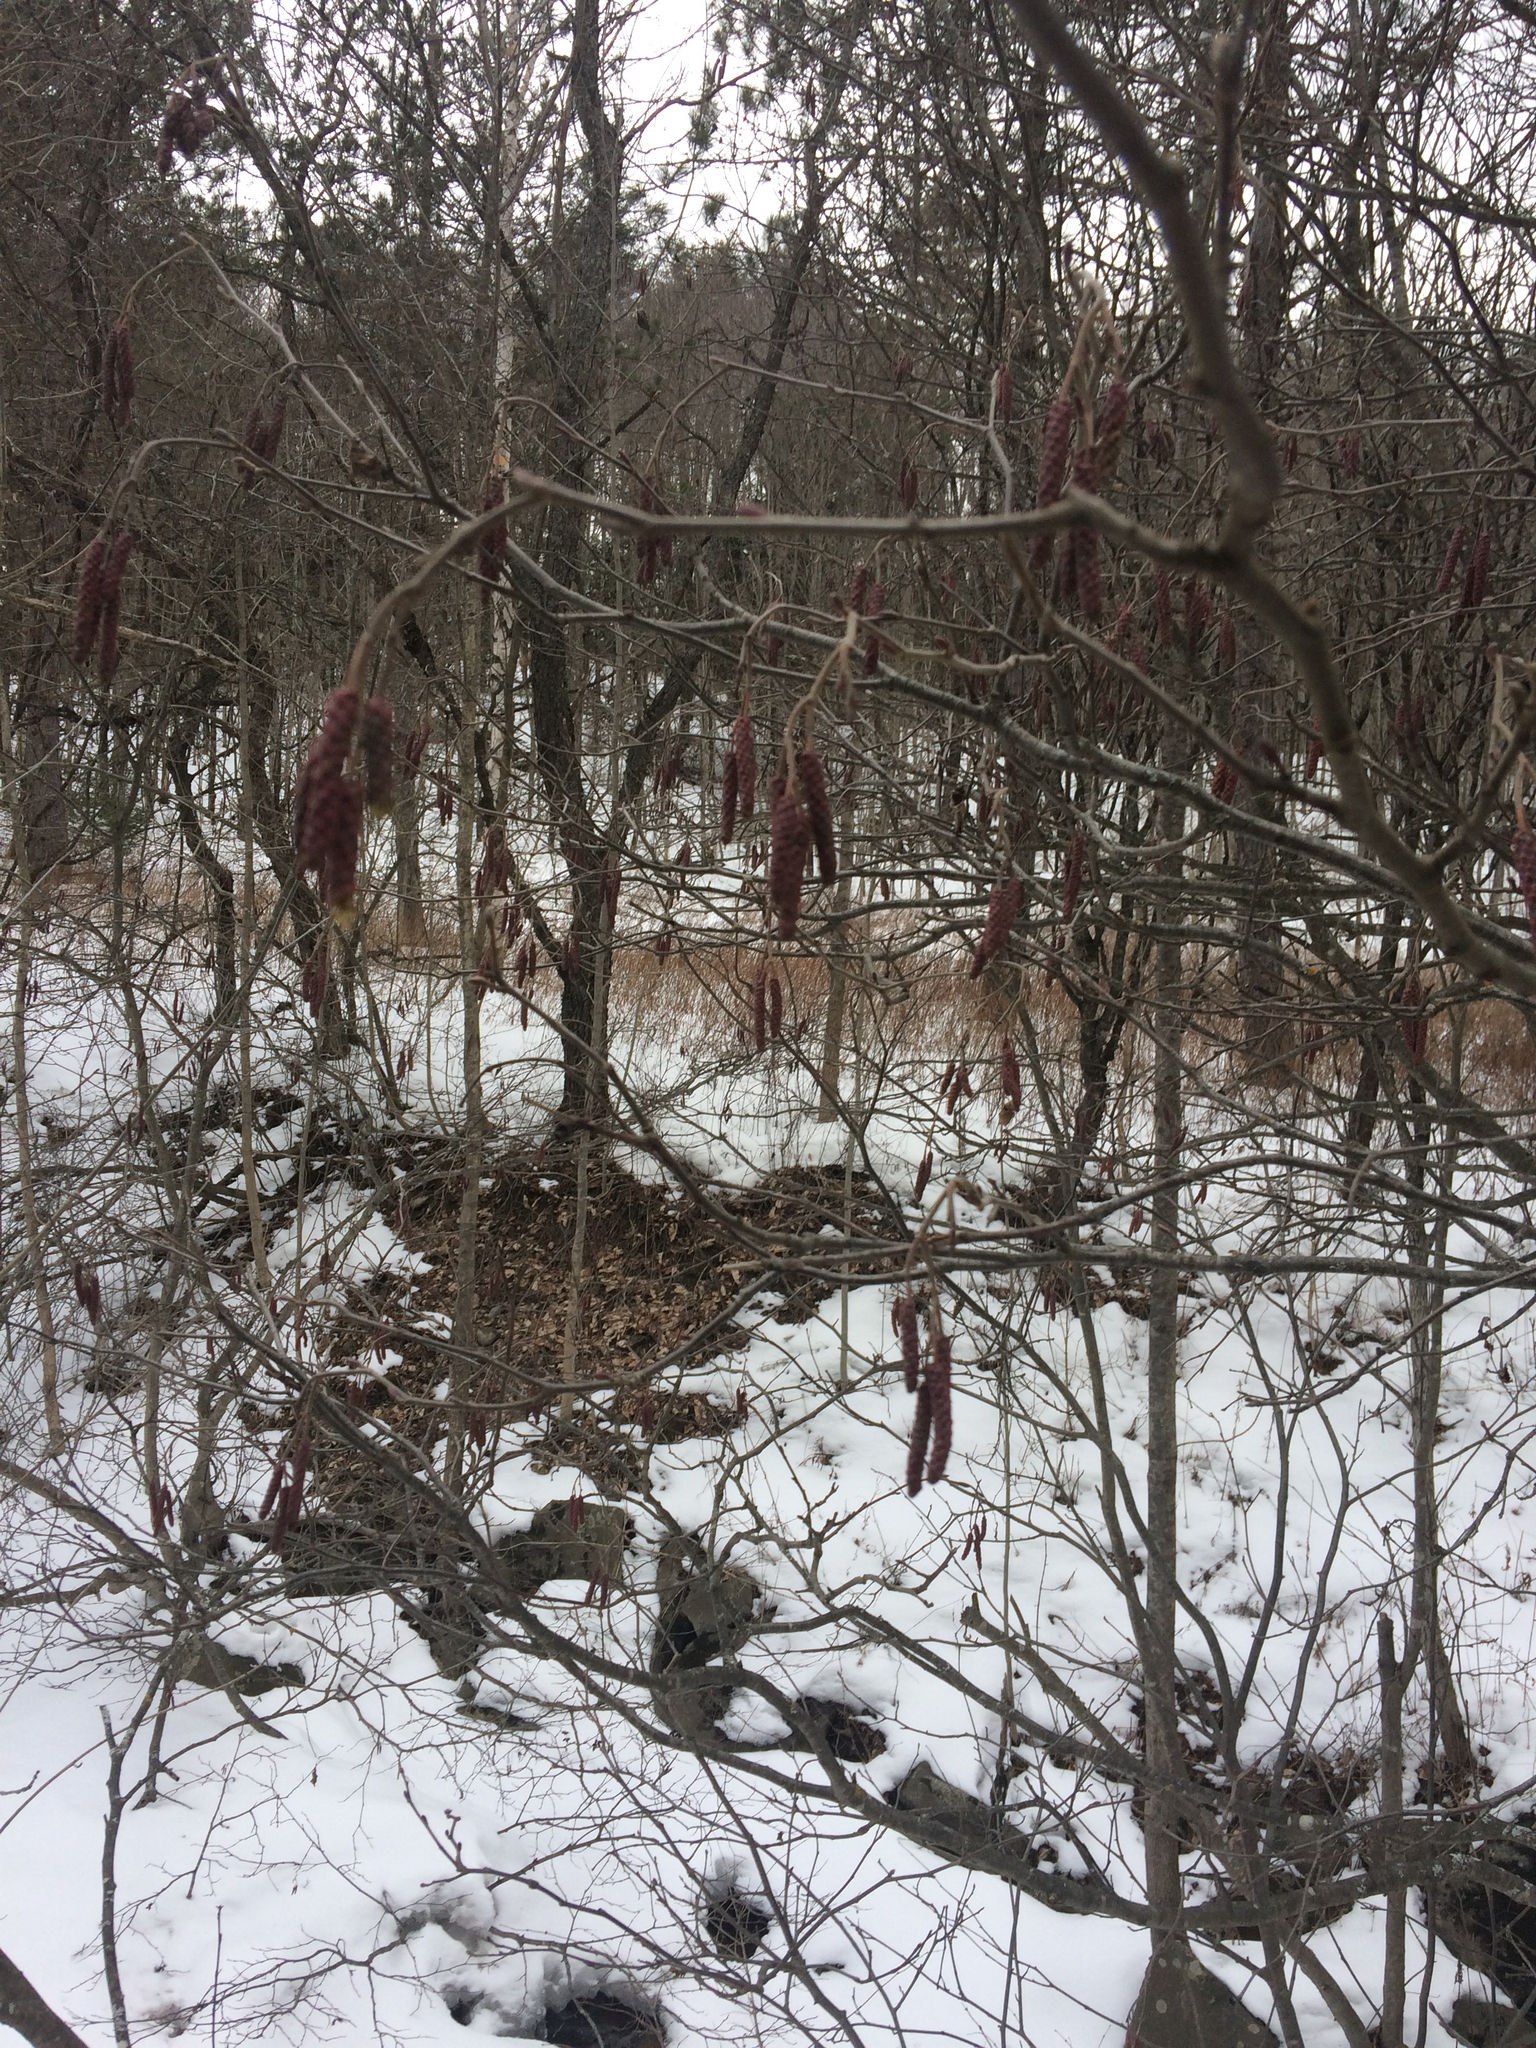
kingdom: Plantae
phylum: Tracheophyta
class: Magnoliopsida
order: Fagales
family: Betulaceae
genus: Alnus
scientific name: Alnus incana
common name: Grey alder
